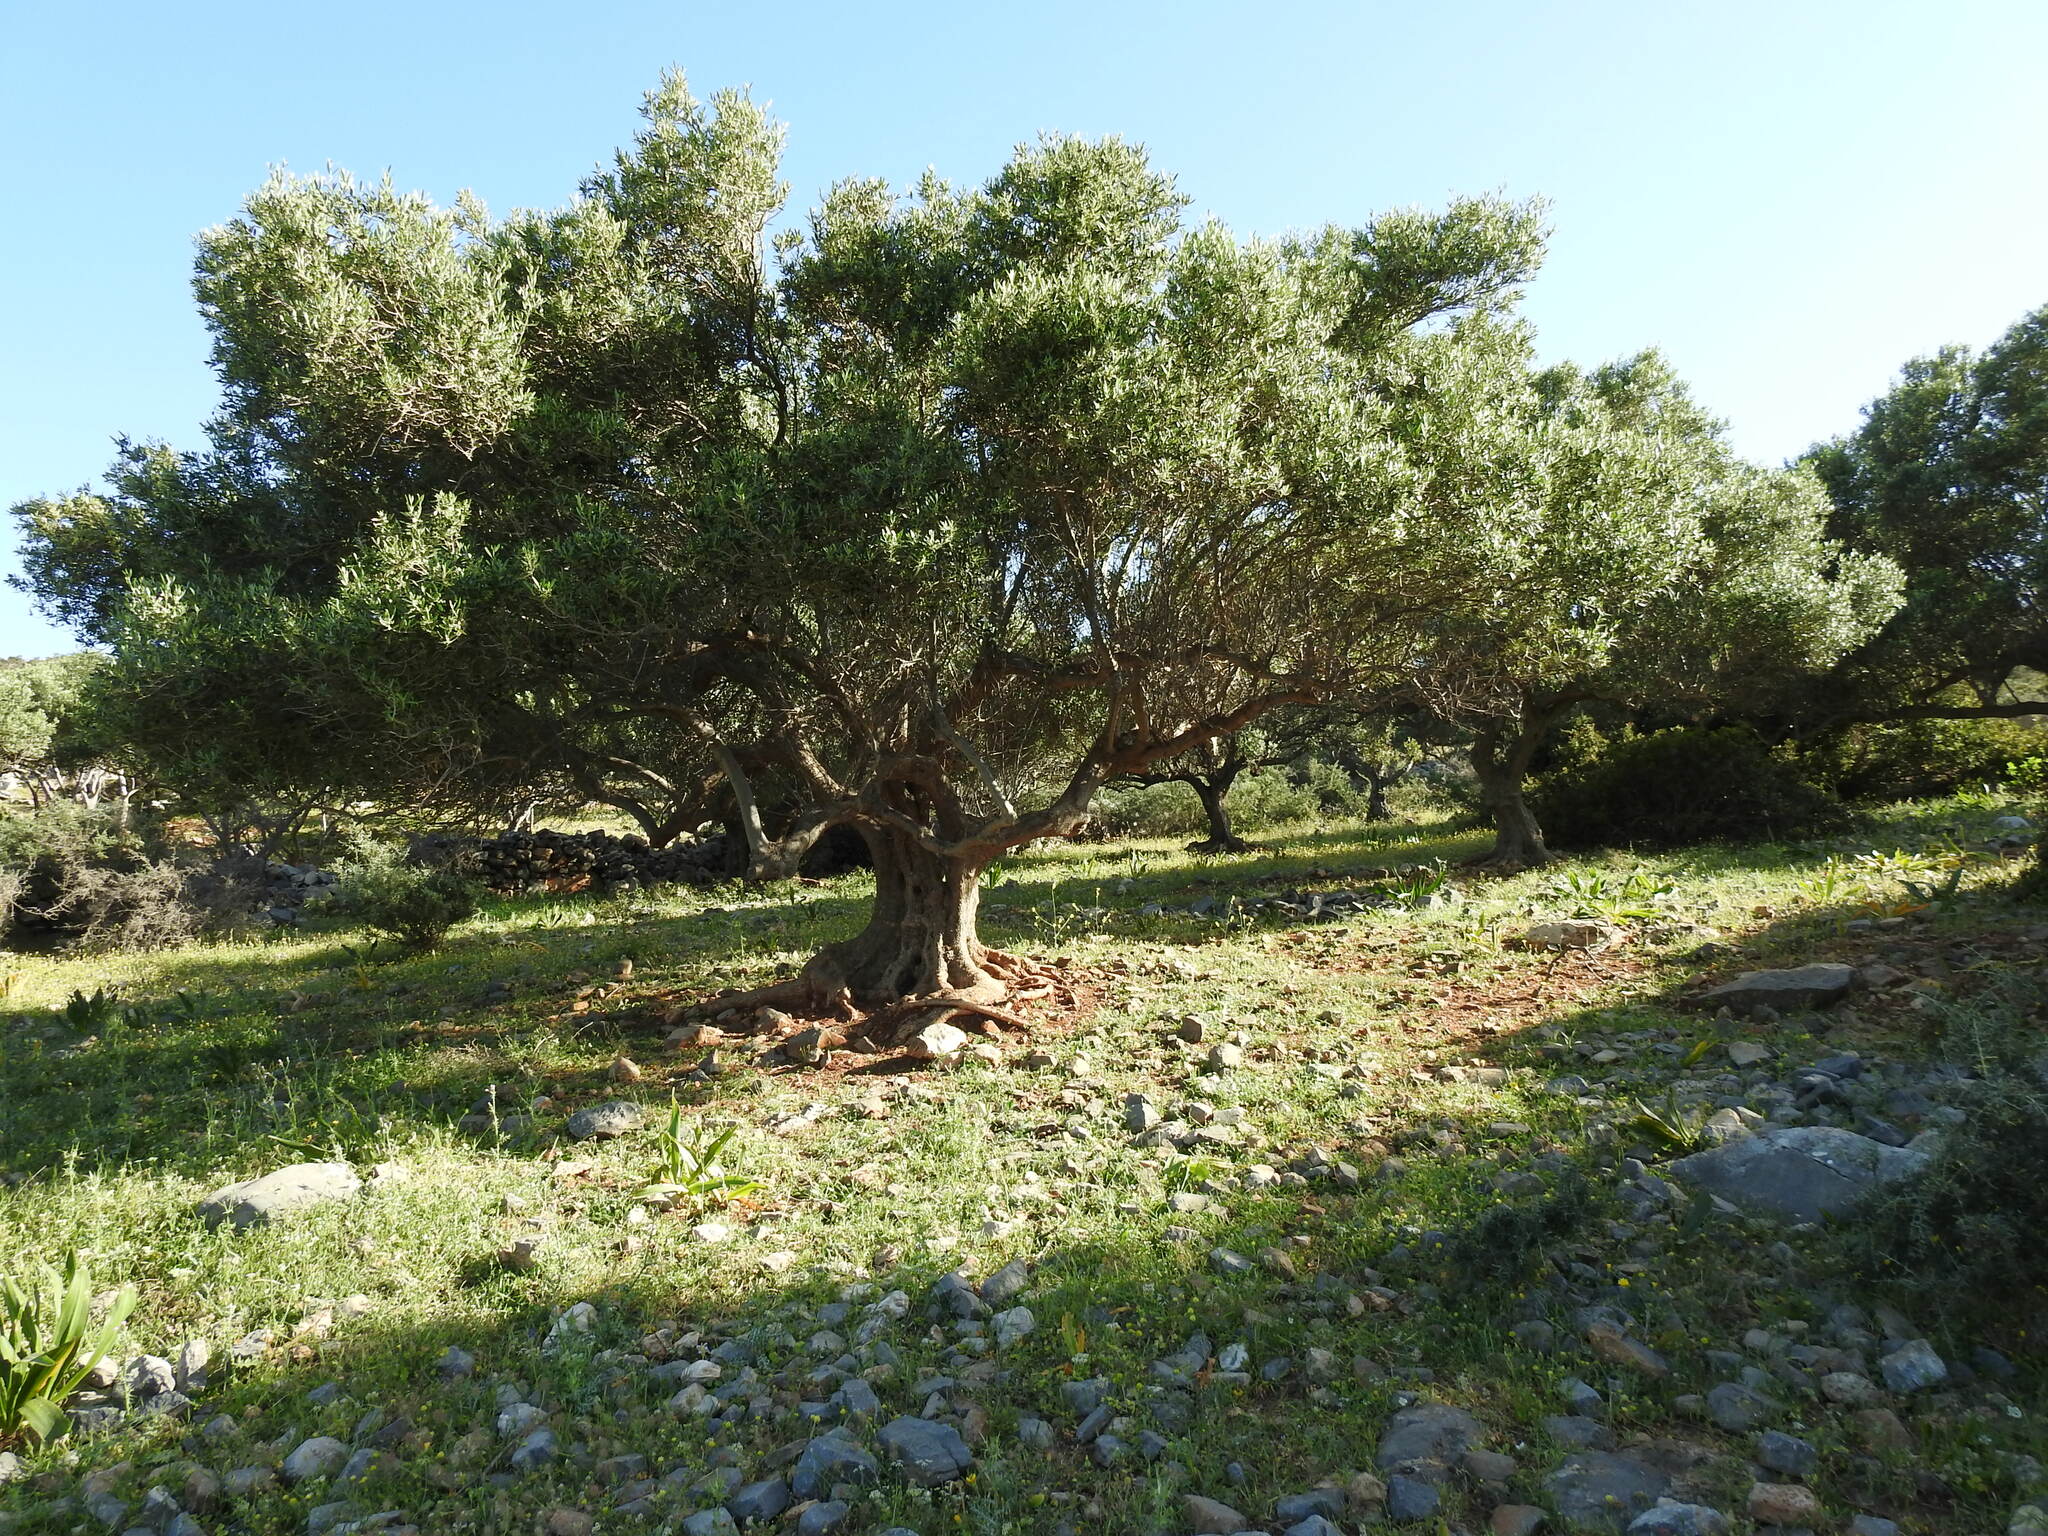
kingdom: Plantae
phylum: Tracheophyta
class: Magnoliopsida
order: Lamiales
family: Oleaceae
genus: Olea
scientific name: Olea europaea
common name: Olive
